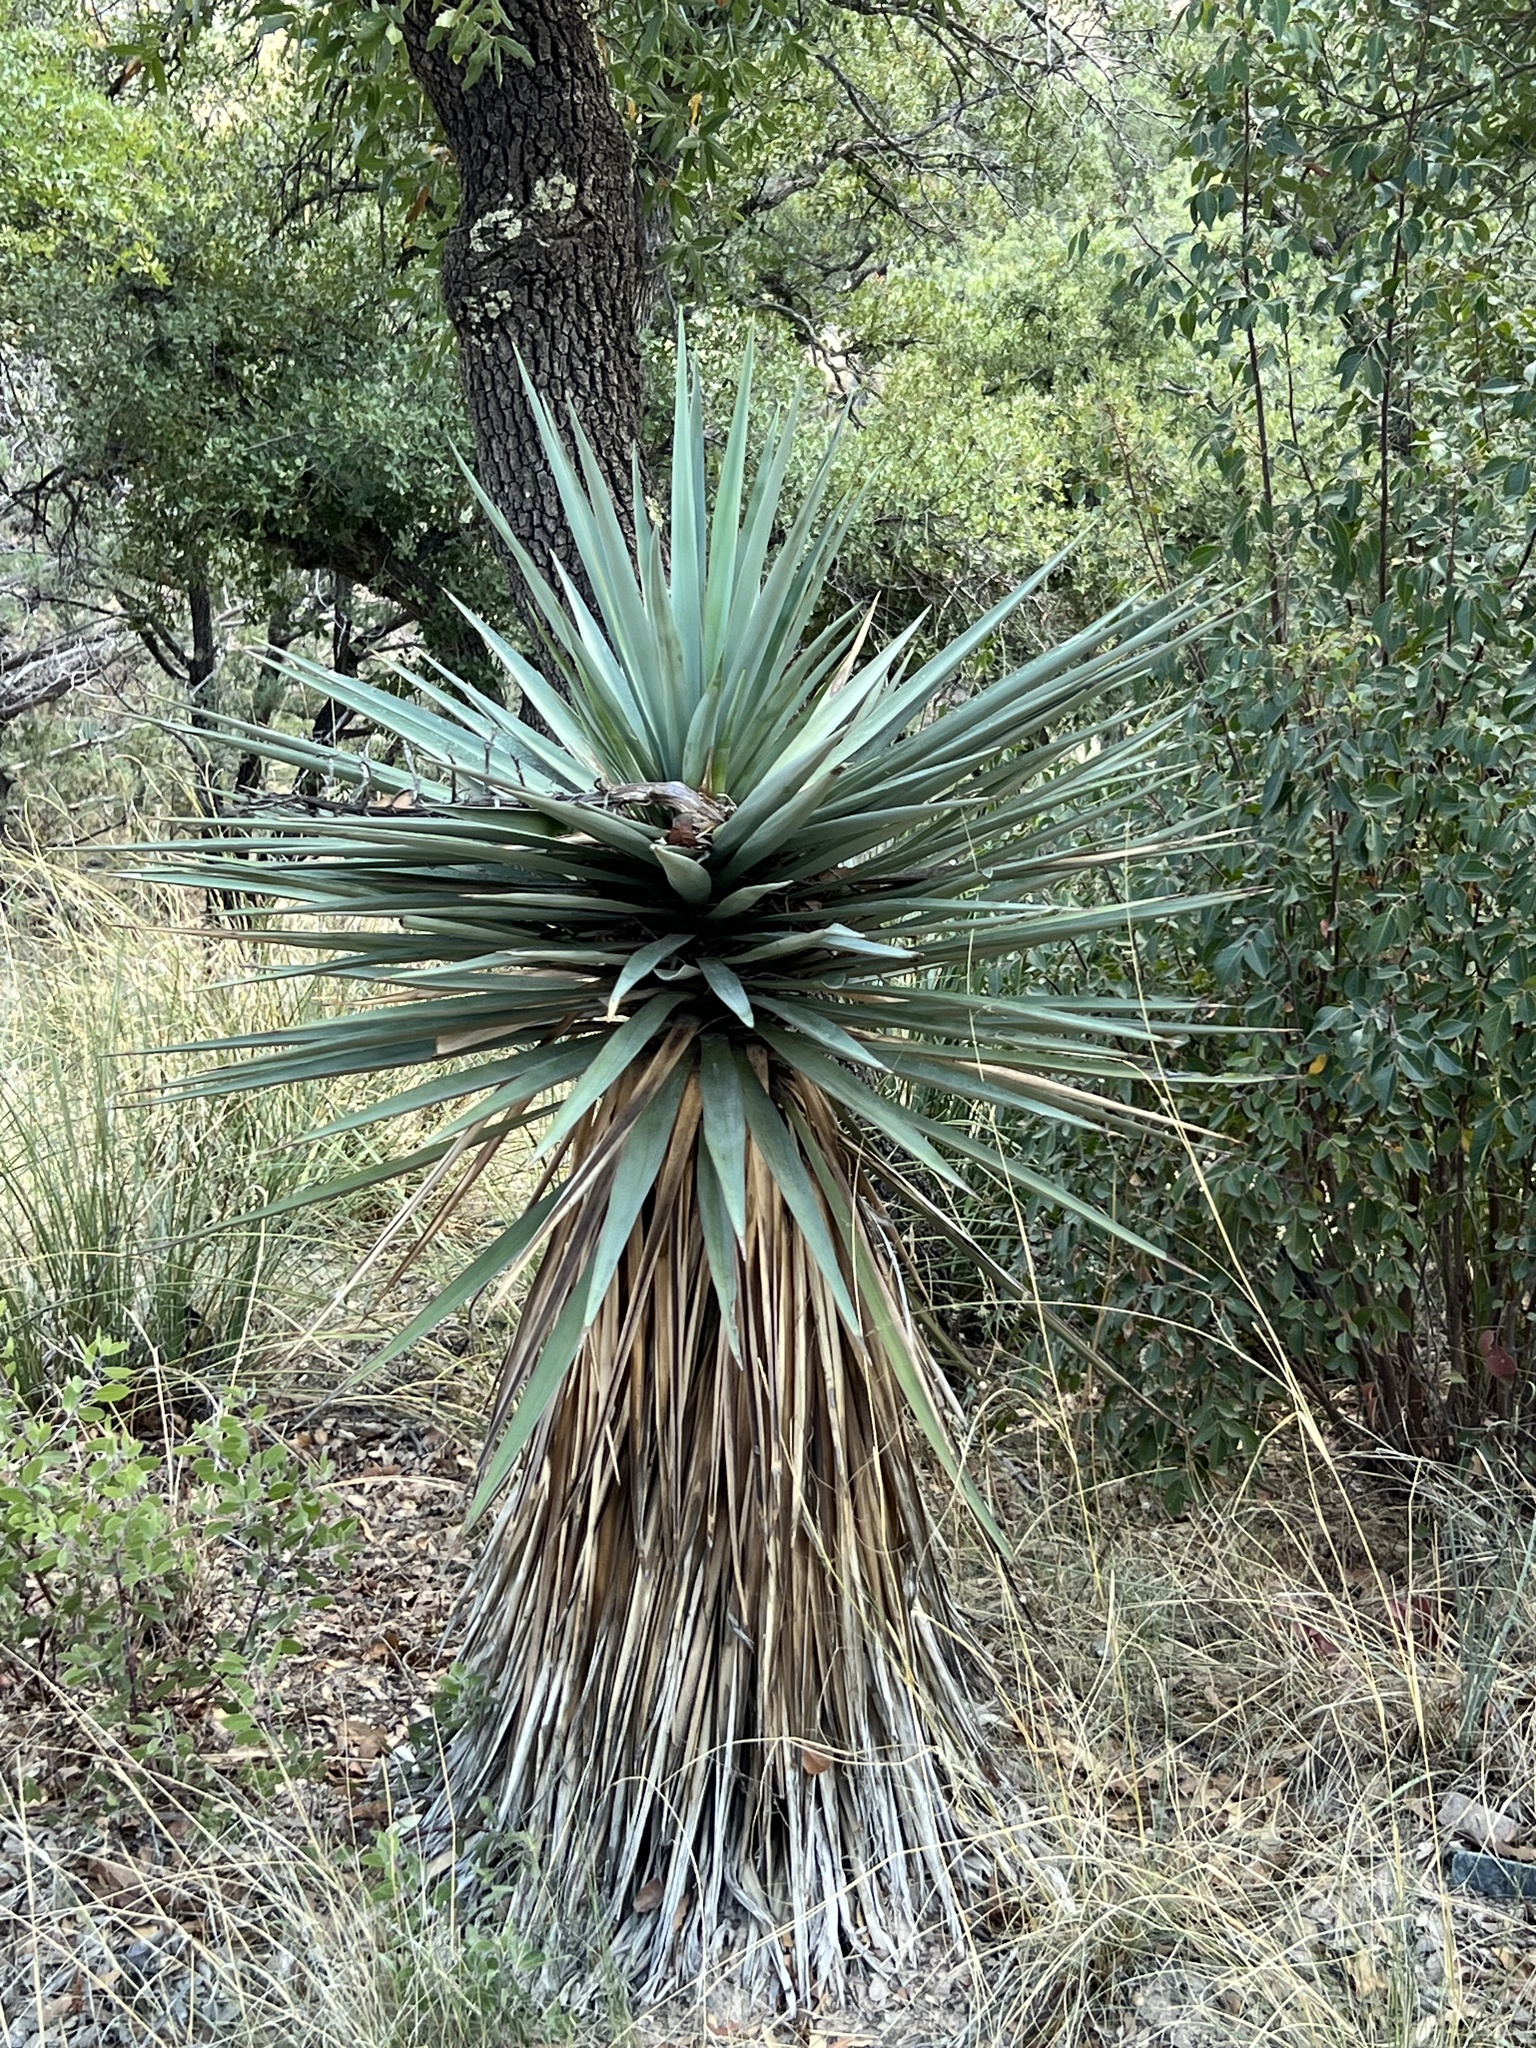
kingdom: Plantae
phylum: Tracheophyta
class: Liliopsida
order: Asparagales
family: Asparagaceae
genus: Yucca
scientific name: Yucca schottii
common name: Hoary yucca
